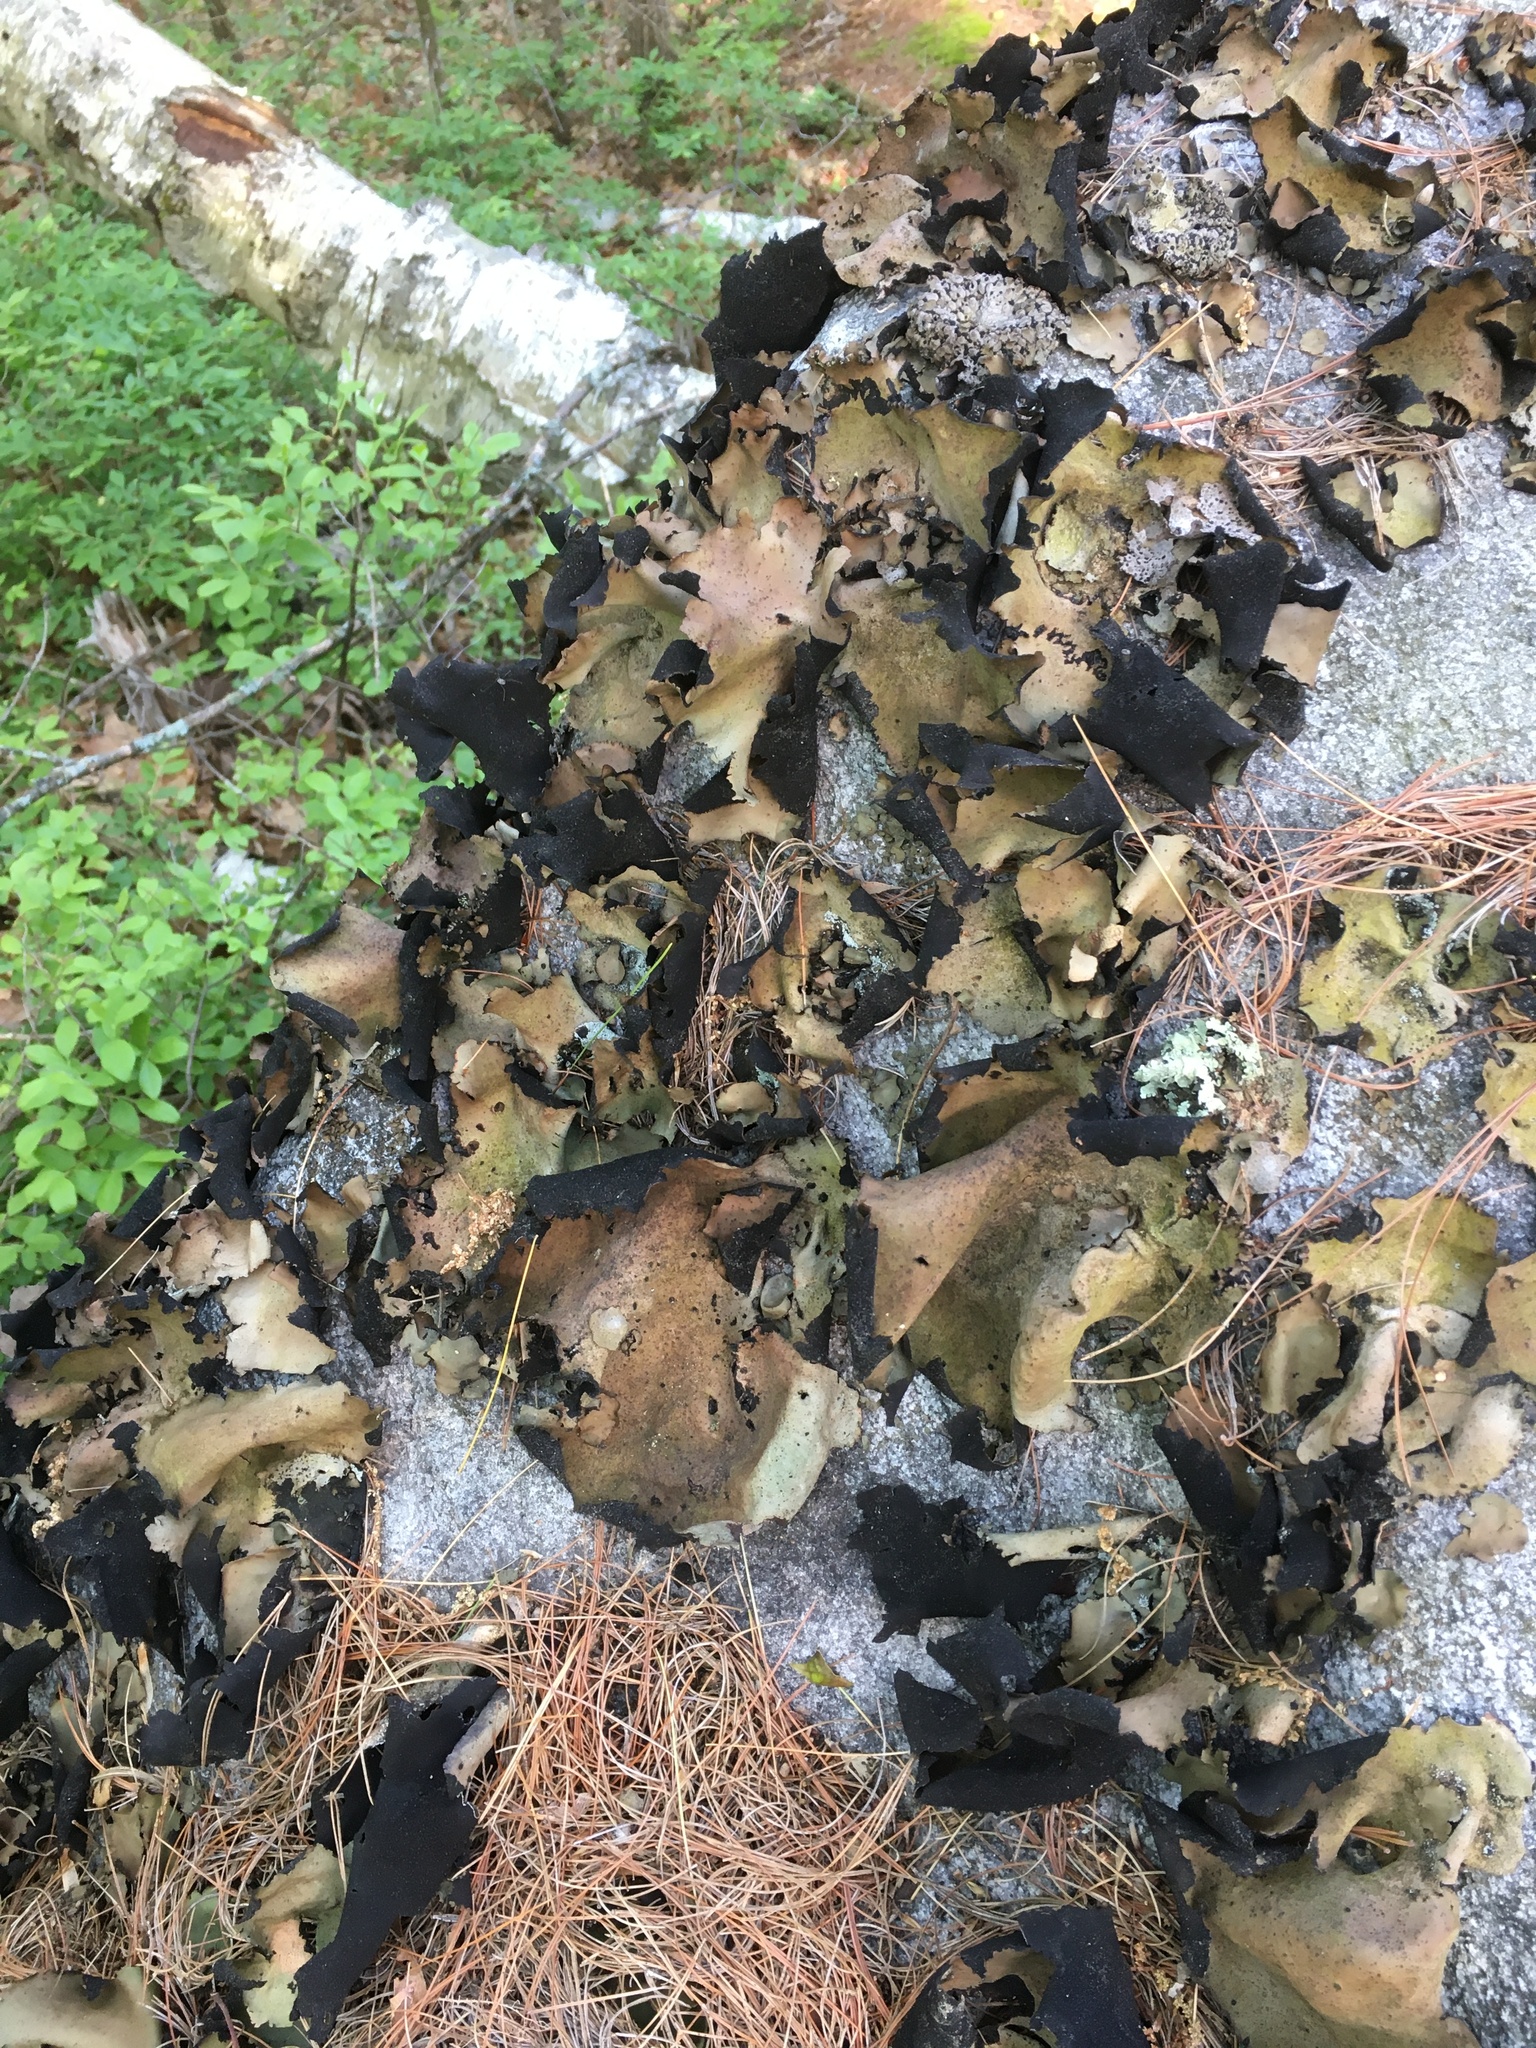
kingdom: Fungi
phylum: Ascomycota
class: Lecanoromycetes
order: Umbilicariales
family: Umbilicariaceae
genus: Umbilicaria
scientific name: Umbilicaria mammulata
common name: Smooth rock tripe
